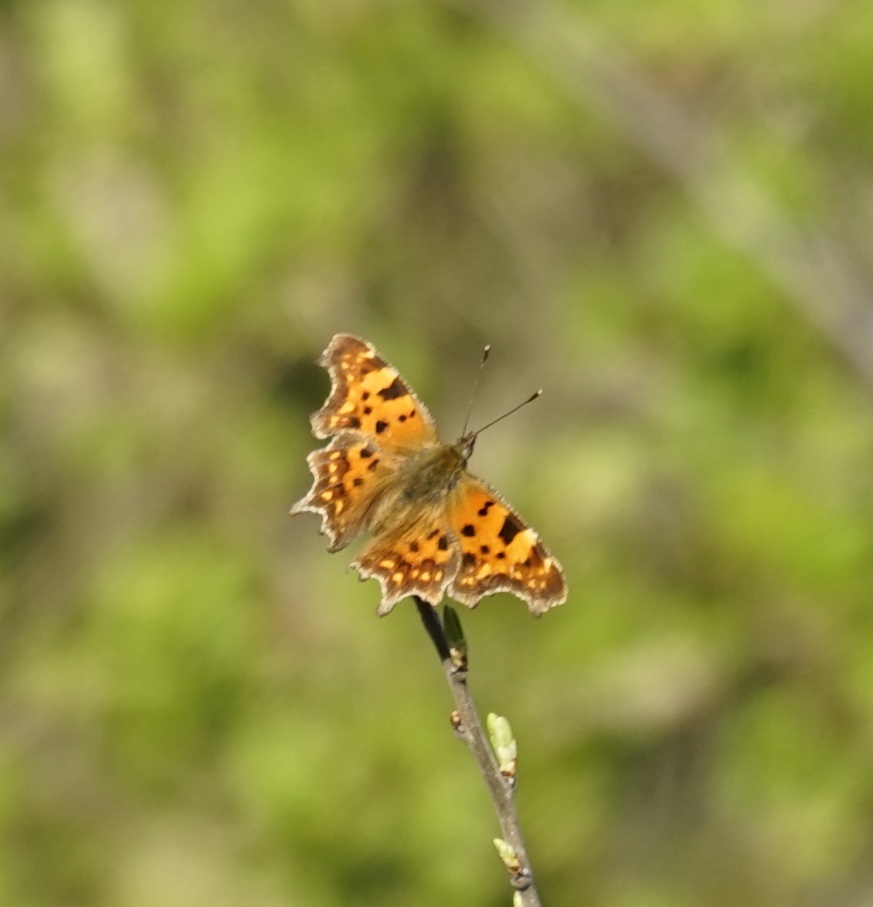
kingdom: Animalia
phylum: Arthropoda
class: Insecta
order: Lepidoptera
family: Nymphalidae
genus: Polygonia
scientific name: Polygonia c-album
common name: Comma
